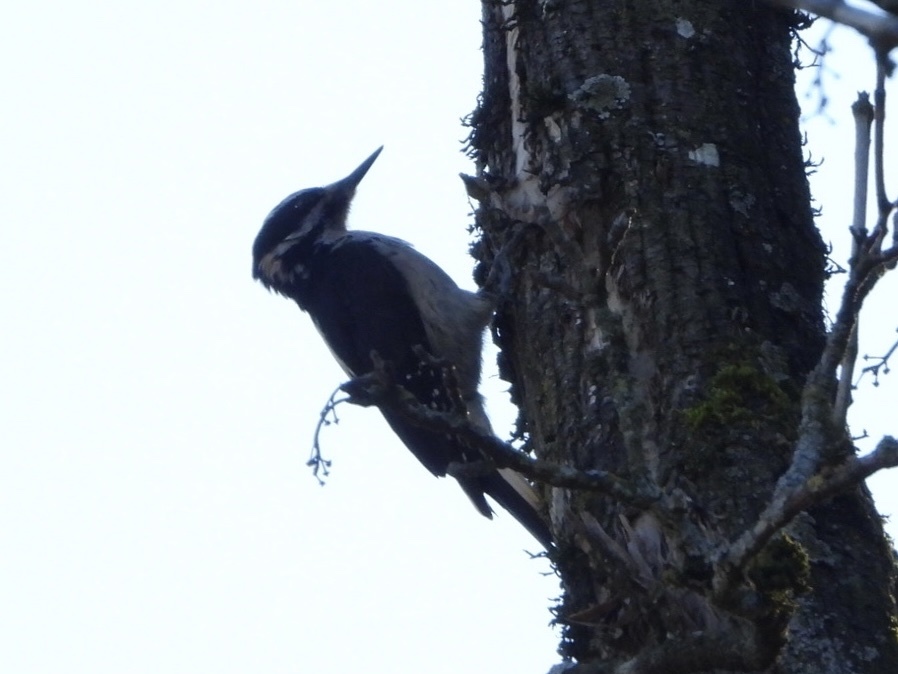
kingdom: Animalia
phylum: Chordata
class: Aves
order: Piciformes
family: Picidae
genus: Leuconotopicus
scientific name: Leuconotopicus villosus
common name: Hairy woodpecker
